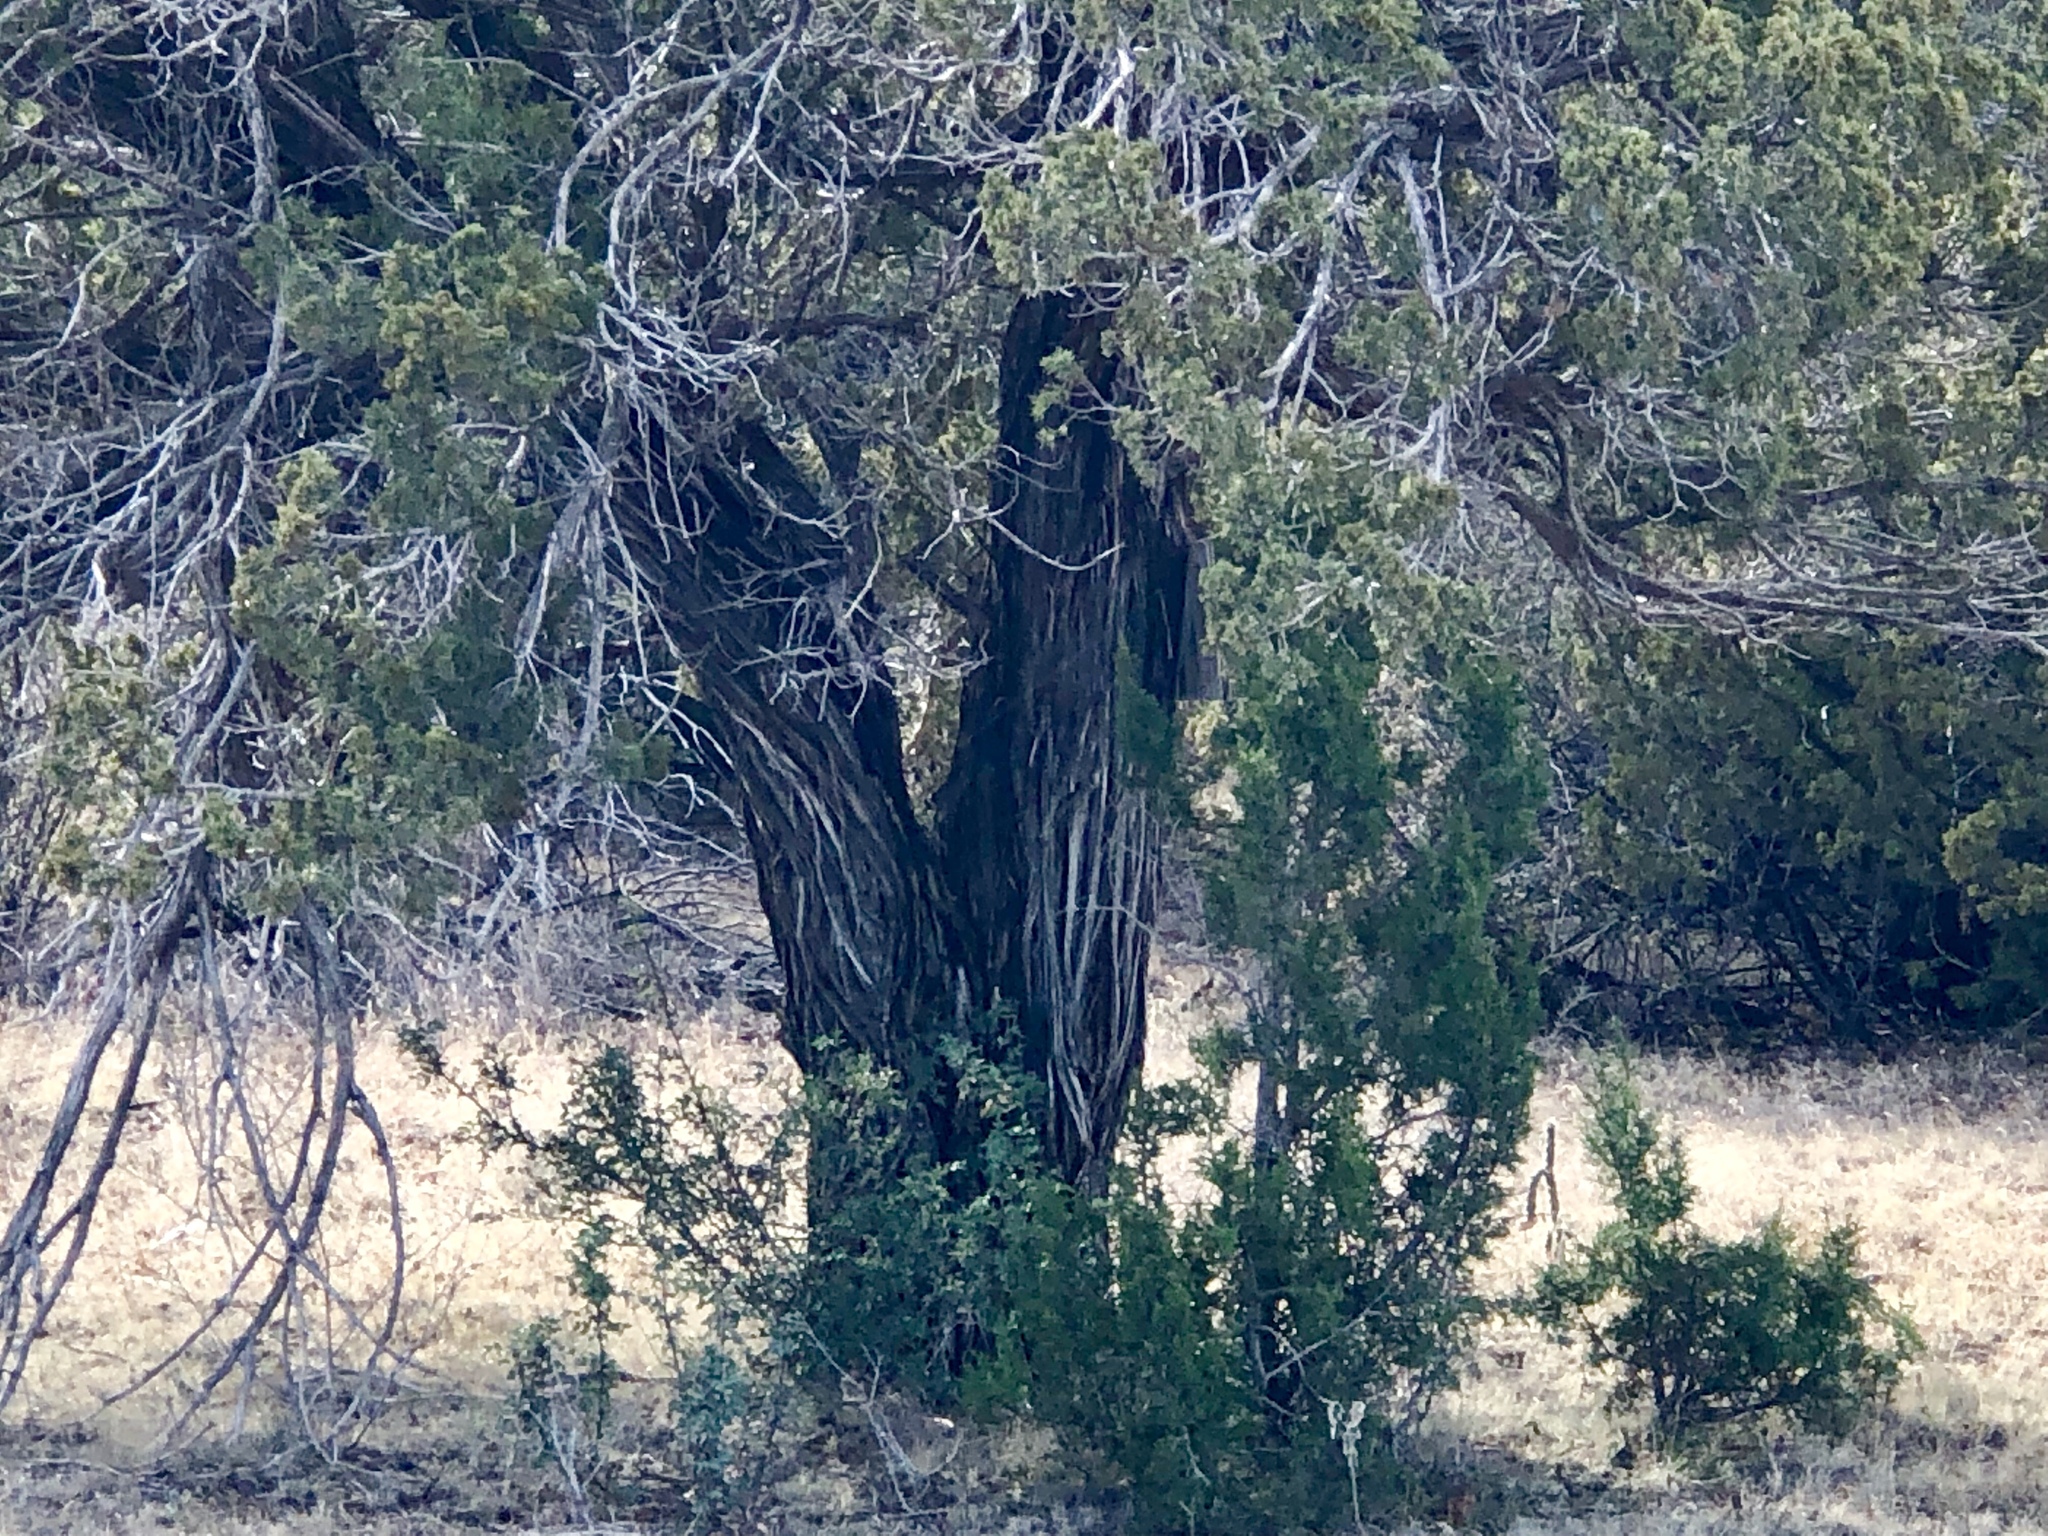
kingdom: Plantae
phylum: Tracheophyta
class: Pinopsida
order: Pinales
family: Cupressaceae
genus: Juniperus
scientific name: Juniperus monosperma
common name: One-seed juniper
